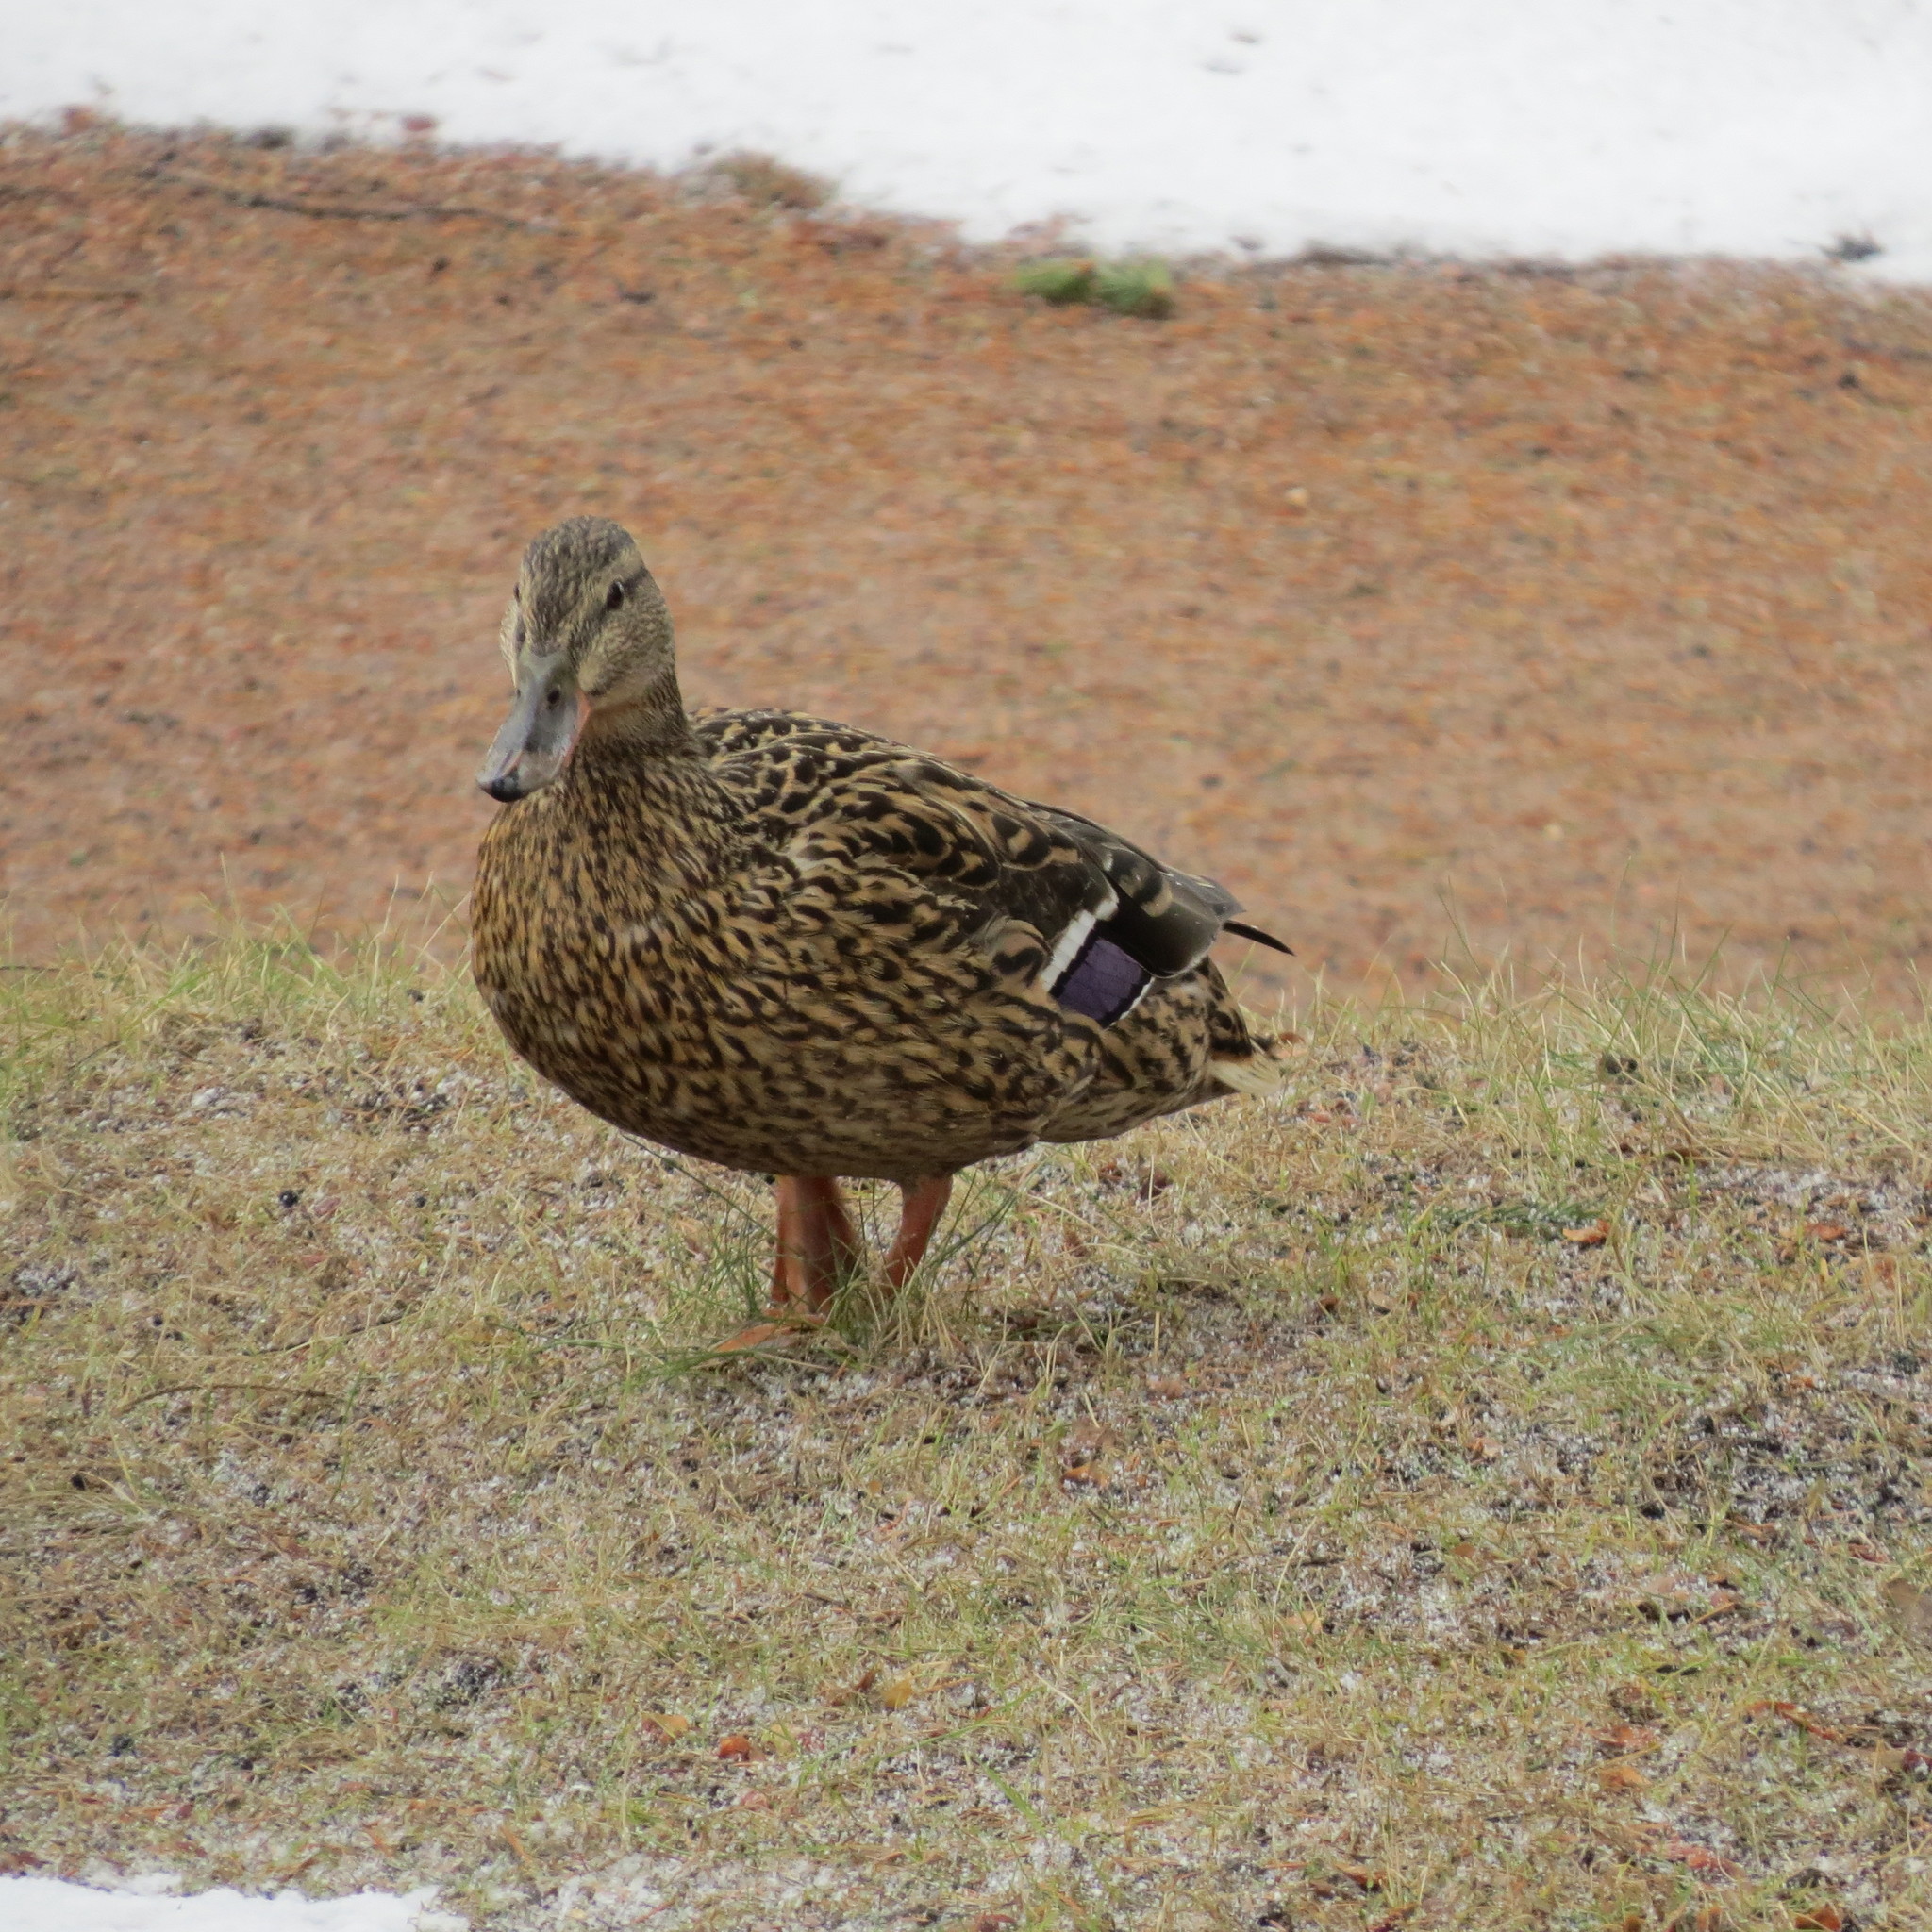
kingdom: Animalia
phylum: Chordata
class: Aves
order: Anseriformes
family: Anatidae
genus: Anas
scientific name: Anas platyrhynchos
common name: Mallard
